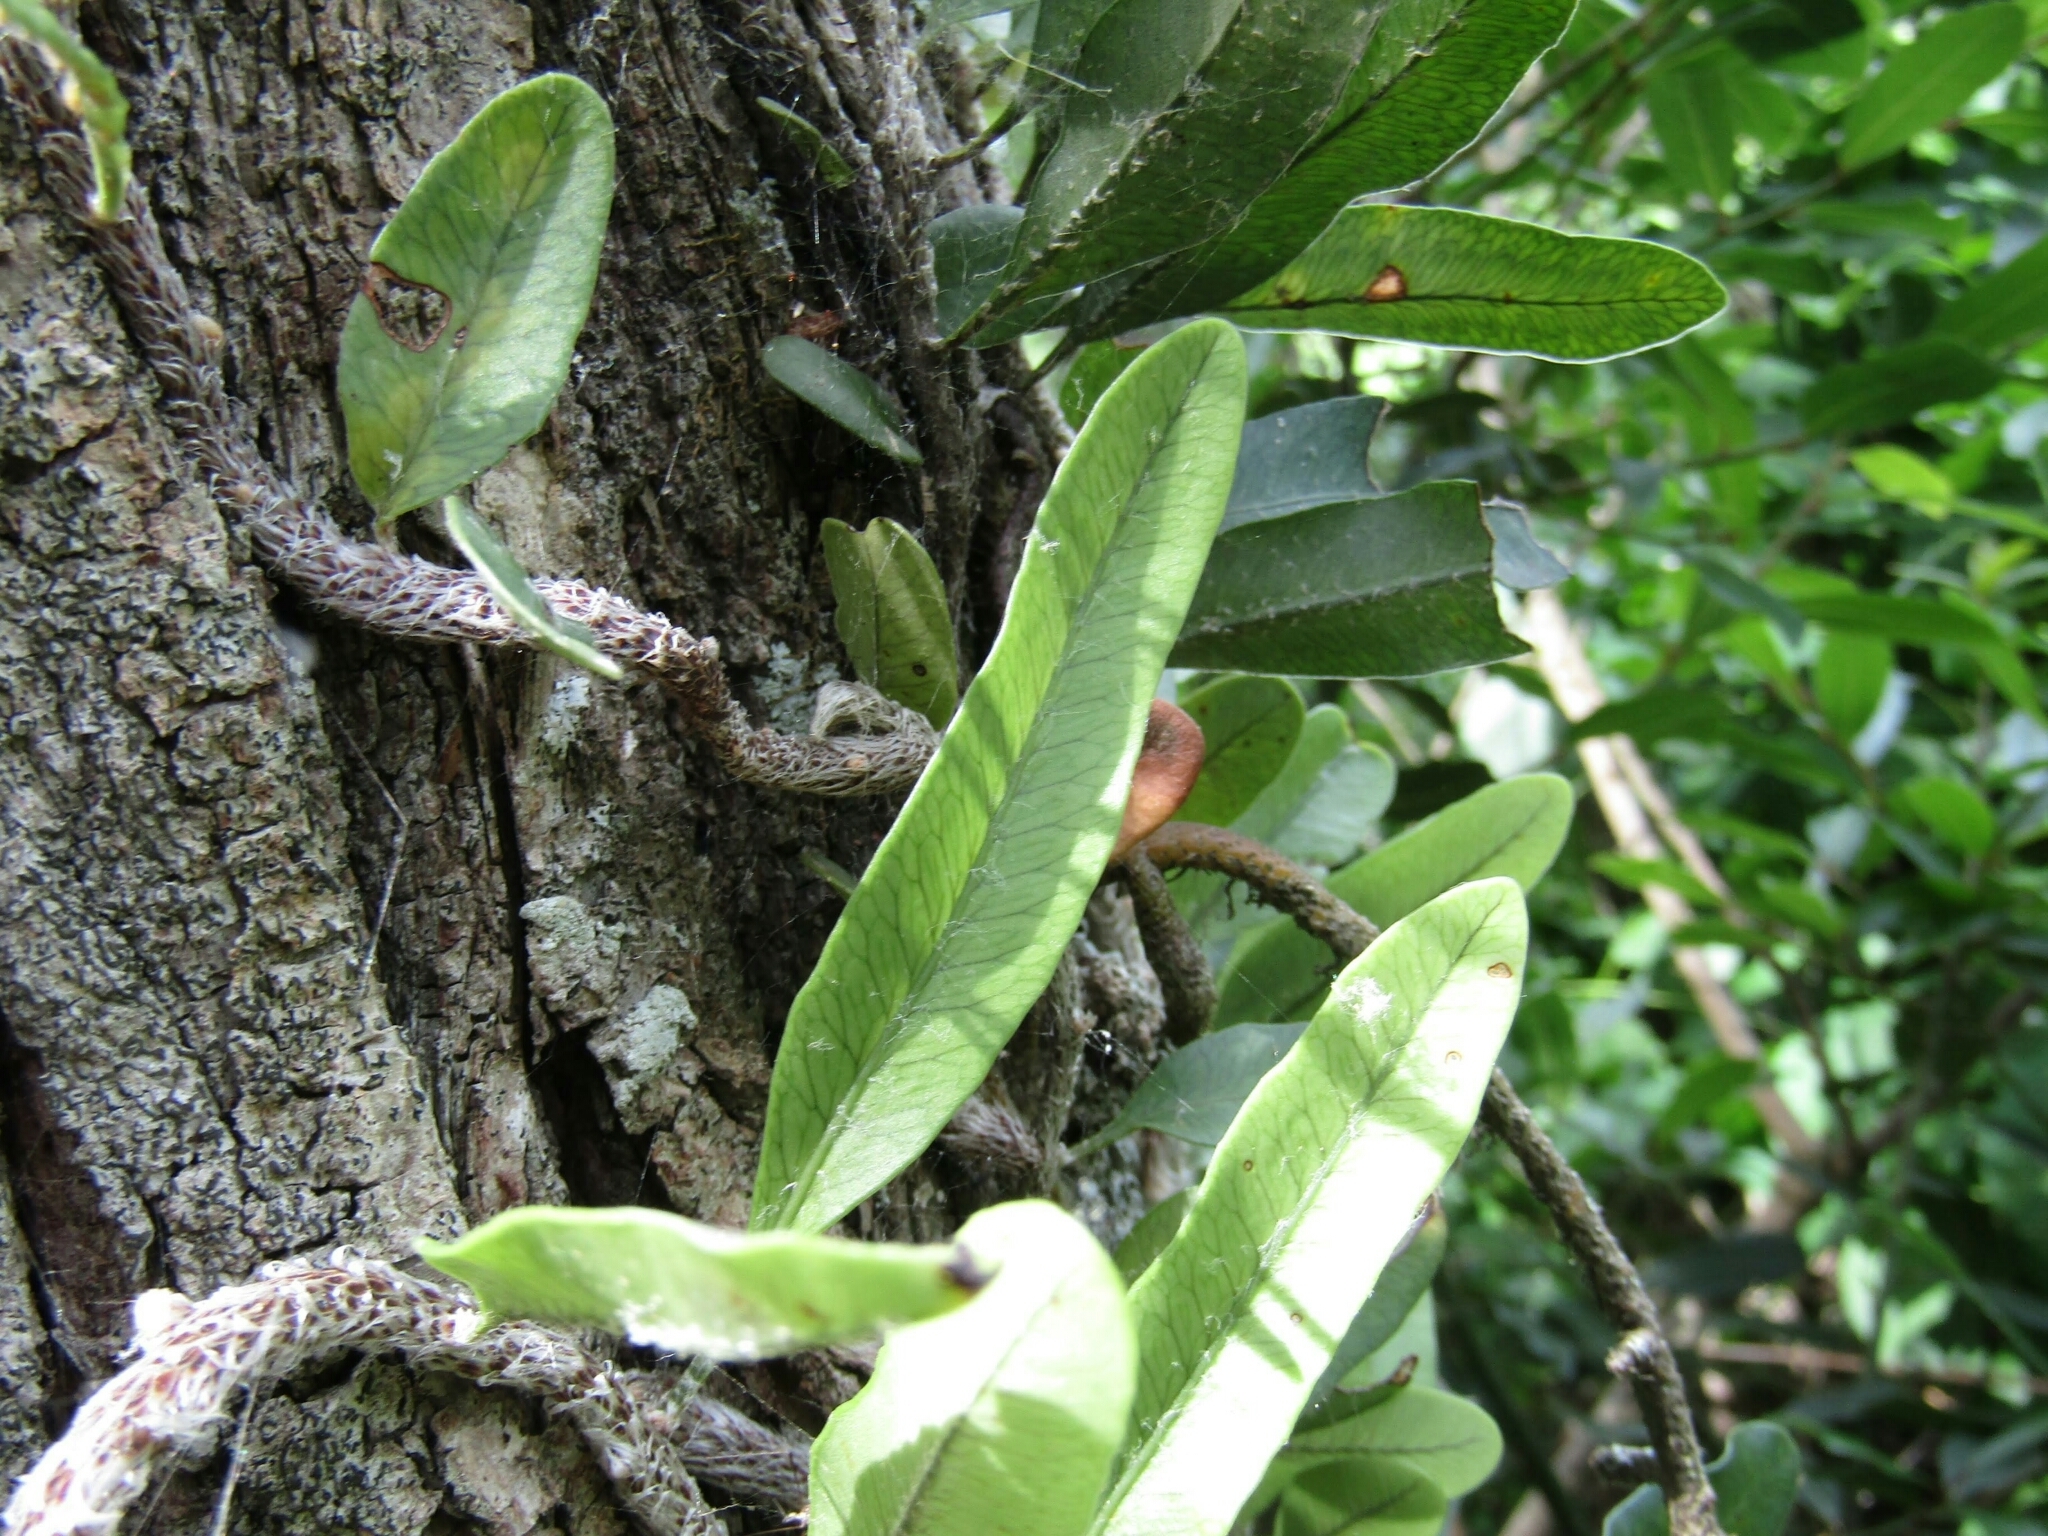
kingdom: Plantae
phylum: Tracheophyta
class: Polypodiopsida
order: Polypodiales
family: Polypodiaceae
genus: Microgramma
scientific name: Microgramma mortoniana
